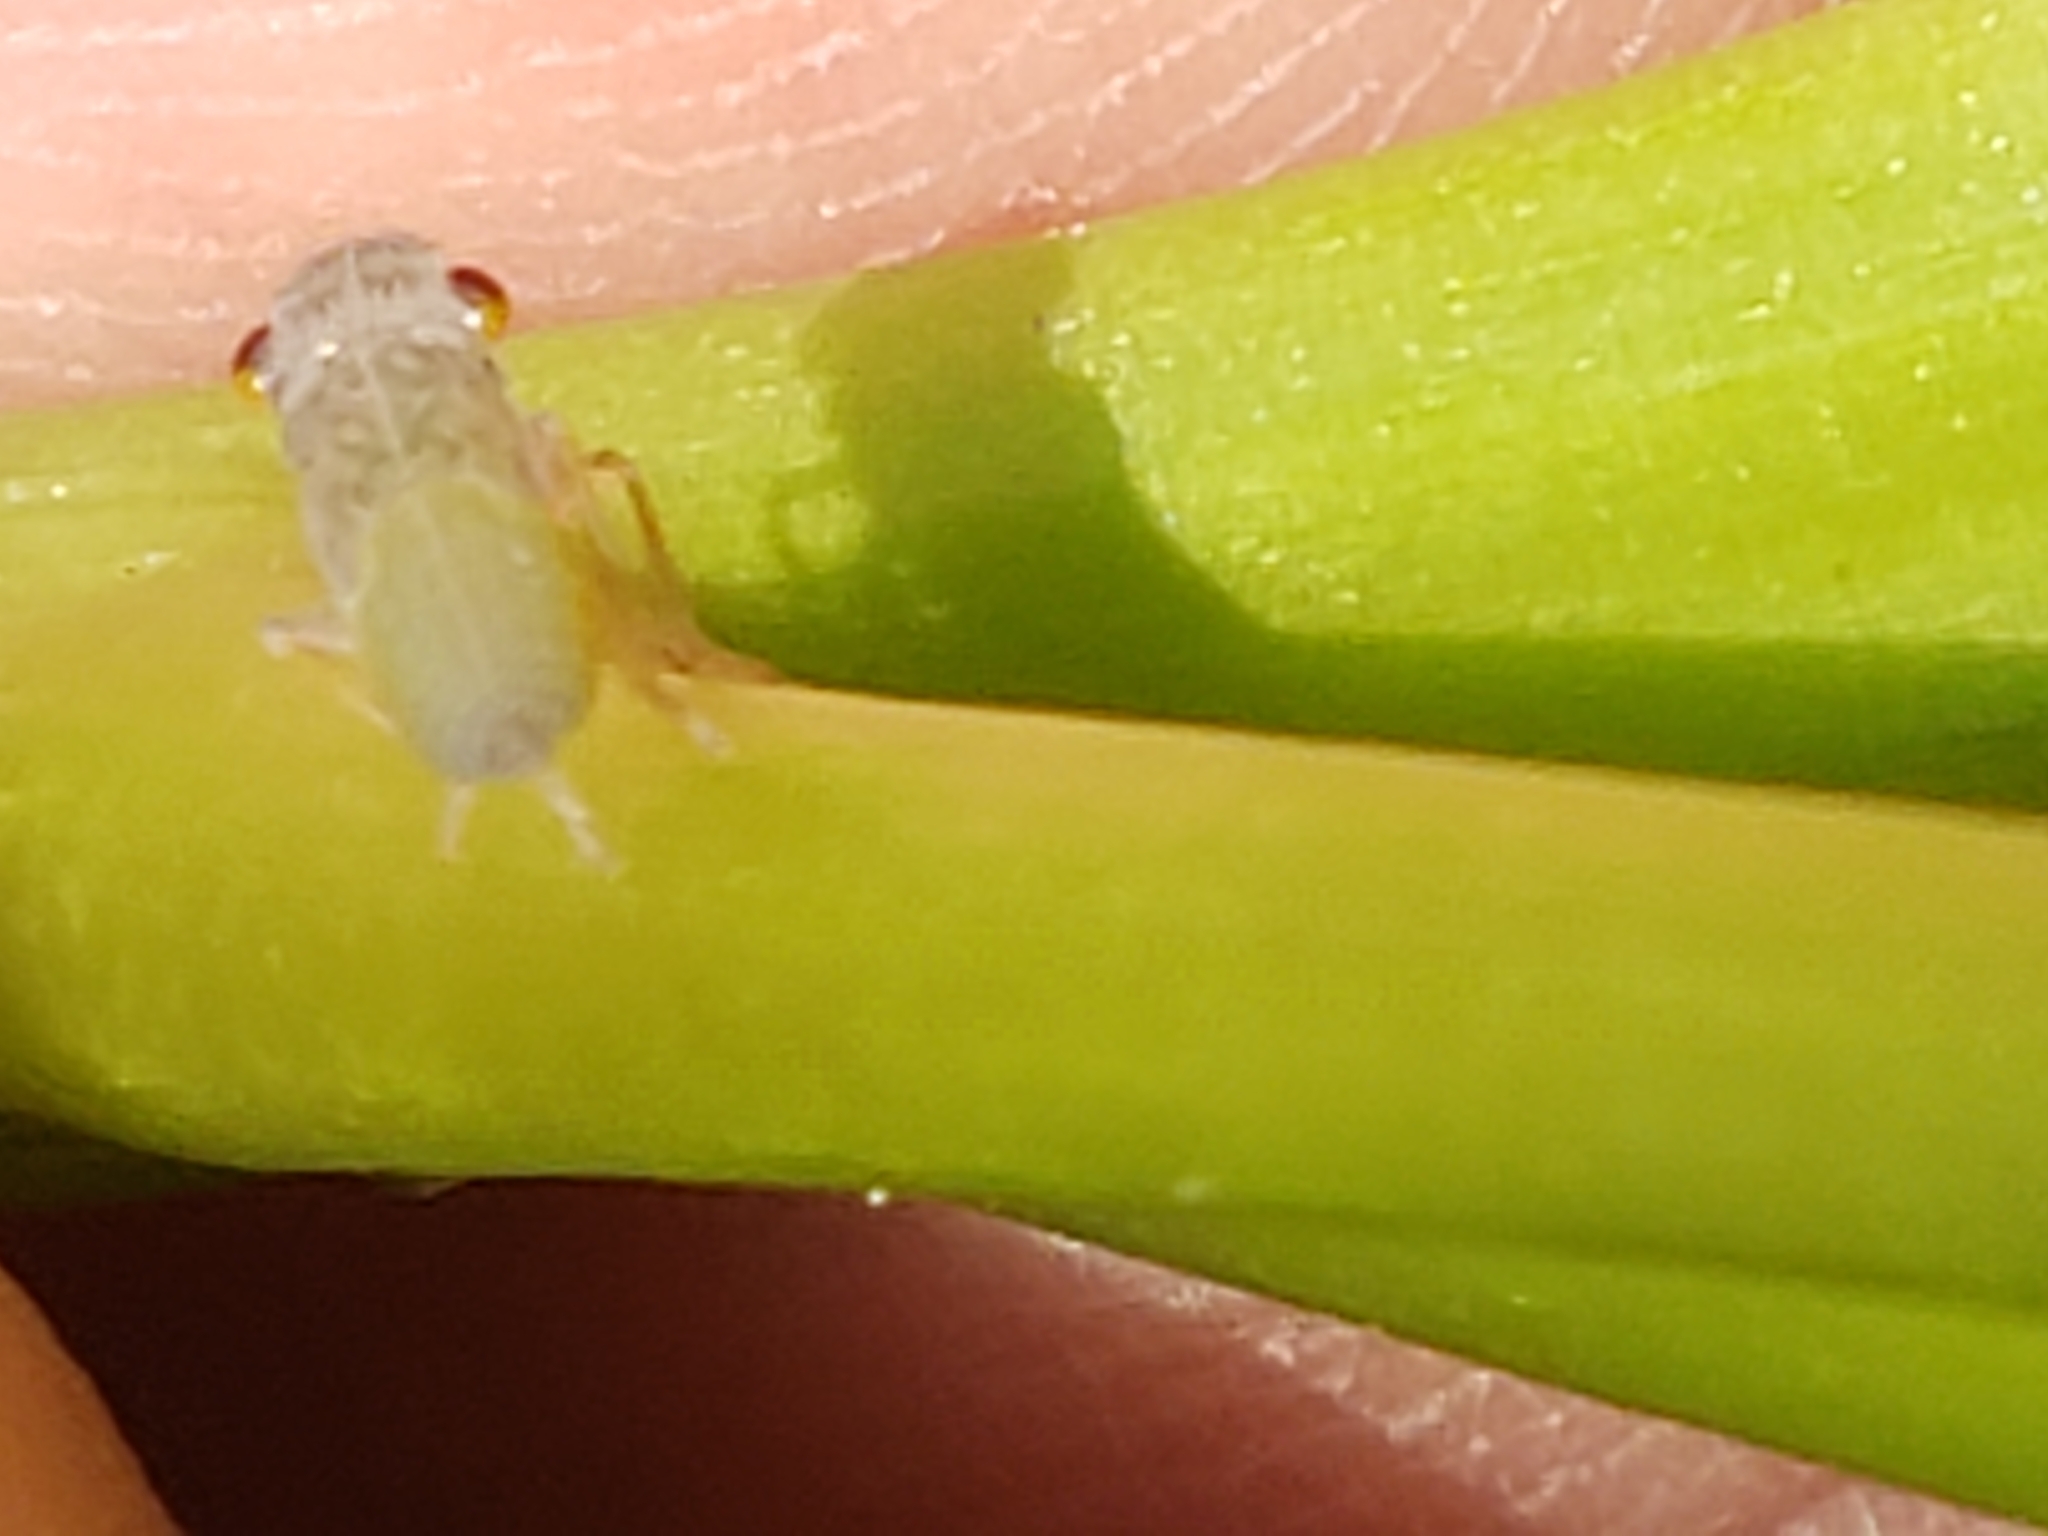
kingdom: Animalia
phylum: Arthropoda
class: Insecta
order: Hemiptera
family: Cicadellidae
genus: Oncometopia
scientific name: Oncometopia orbona
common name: Broad-headed sharpshooter
